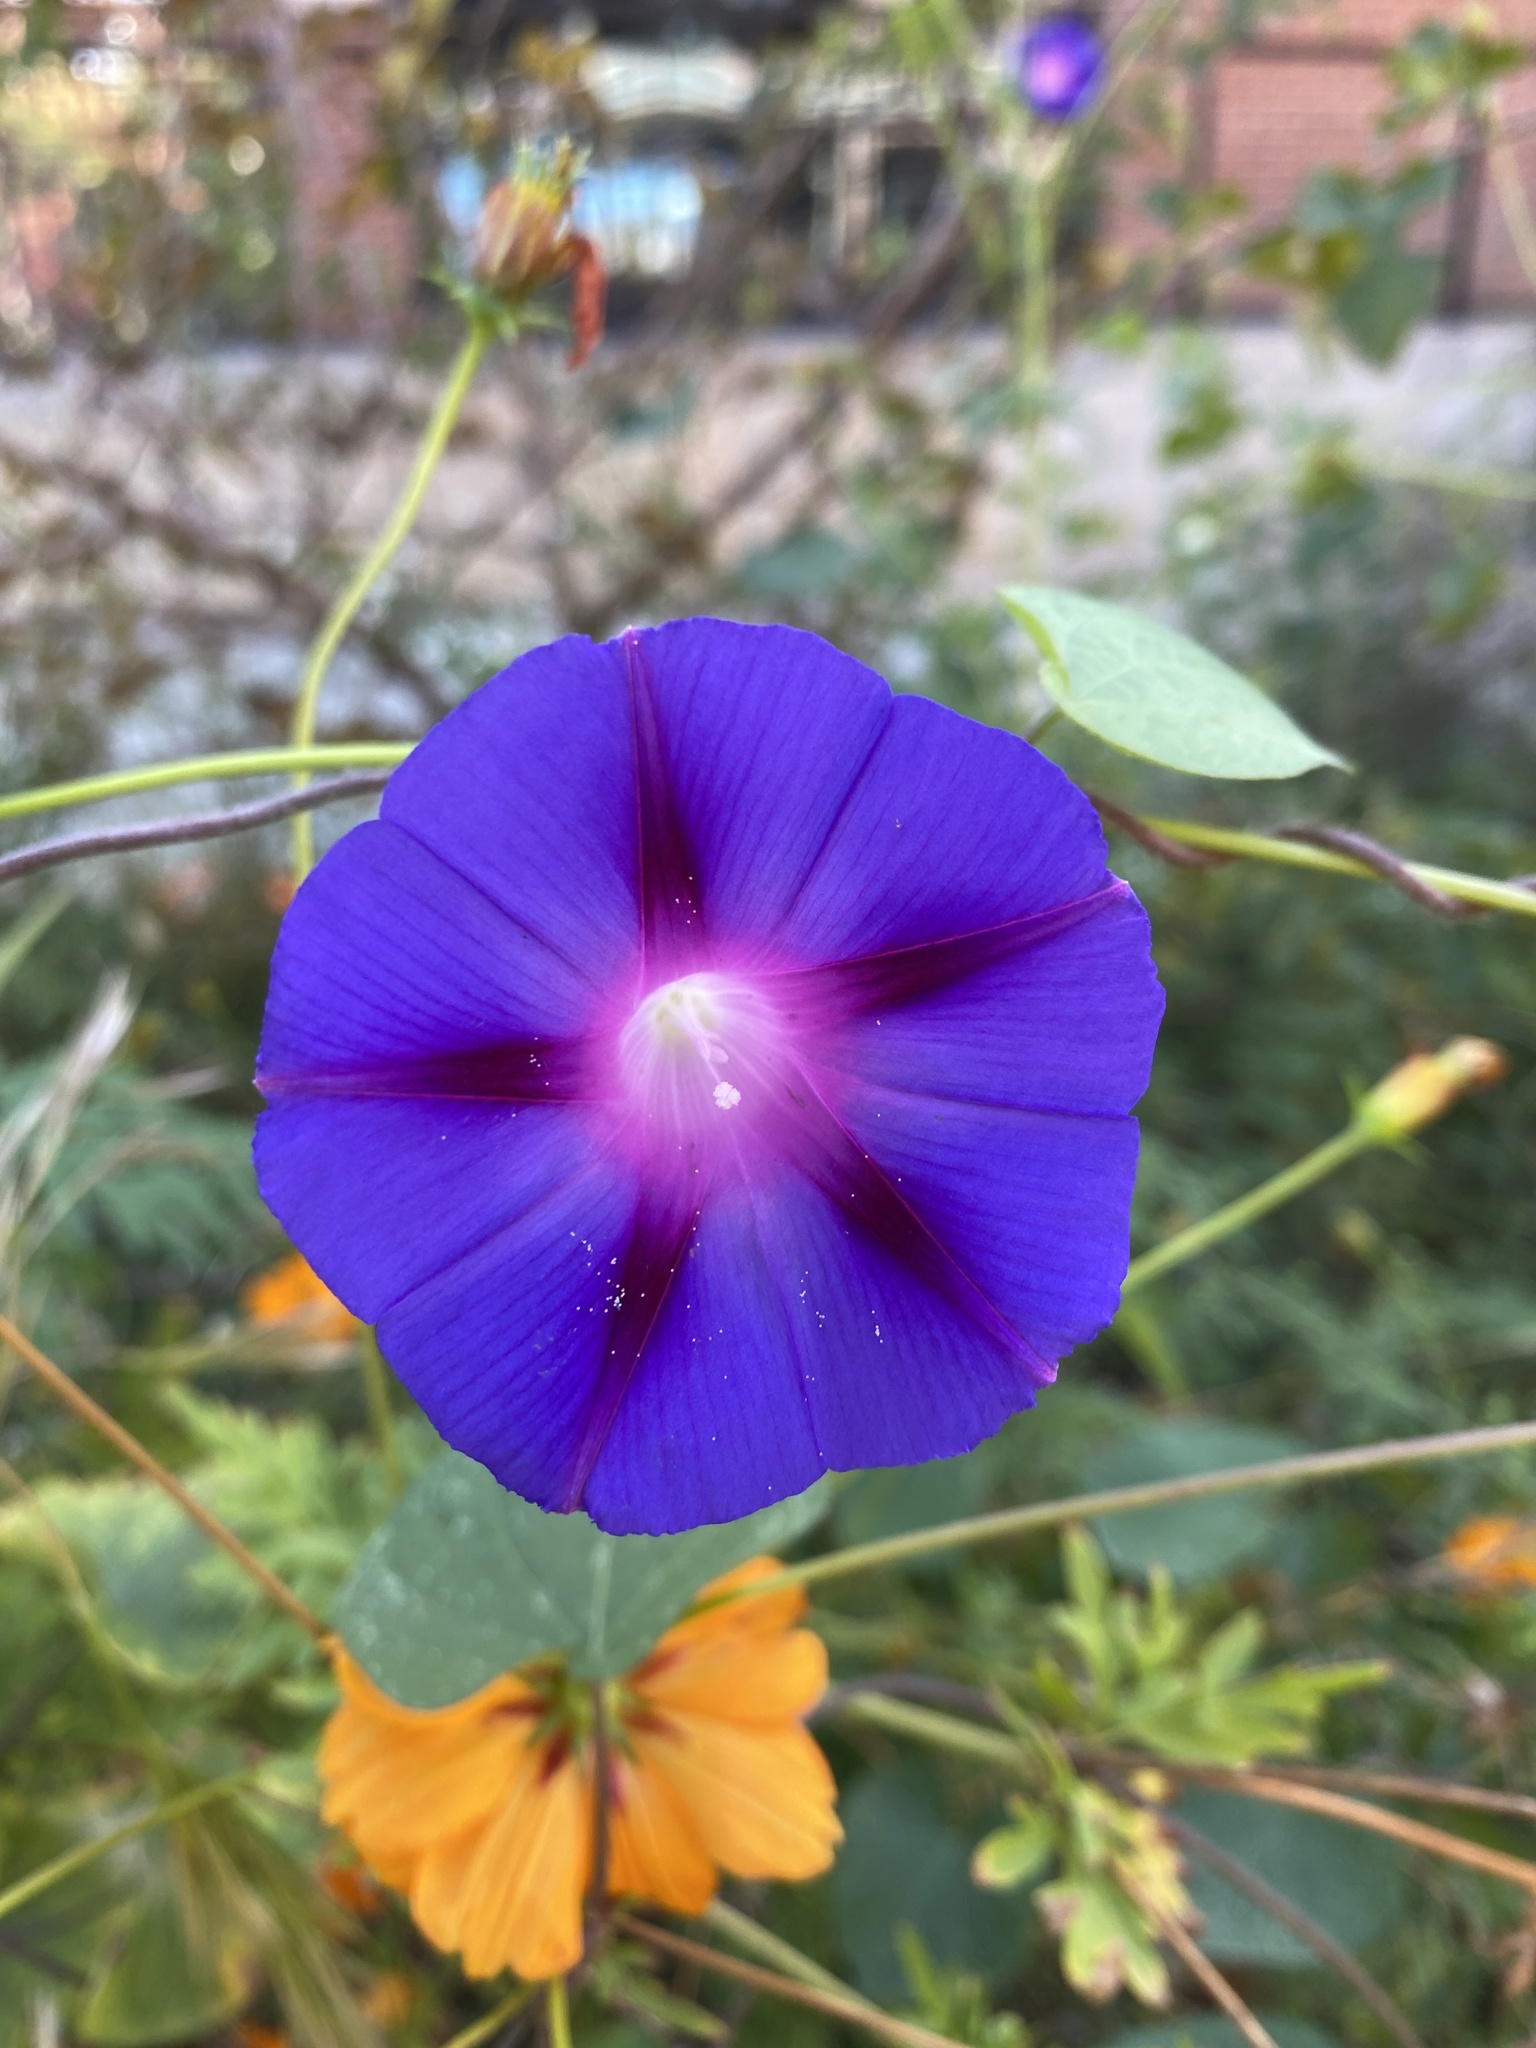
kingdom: Plantae
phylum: Tracheophyta
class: Magnoliopsida
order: Solanales
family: Convolvulaceae
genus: Ipomoea
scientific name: Ipomoea purpurea
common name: Common morning-glory
